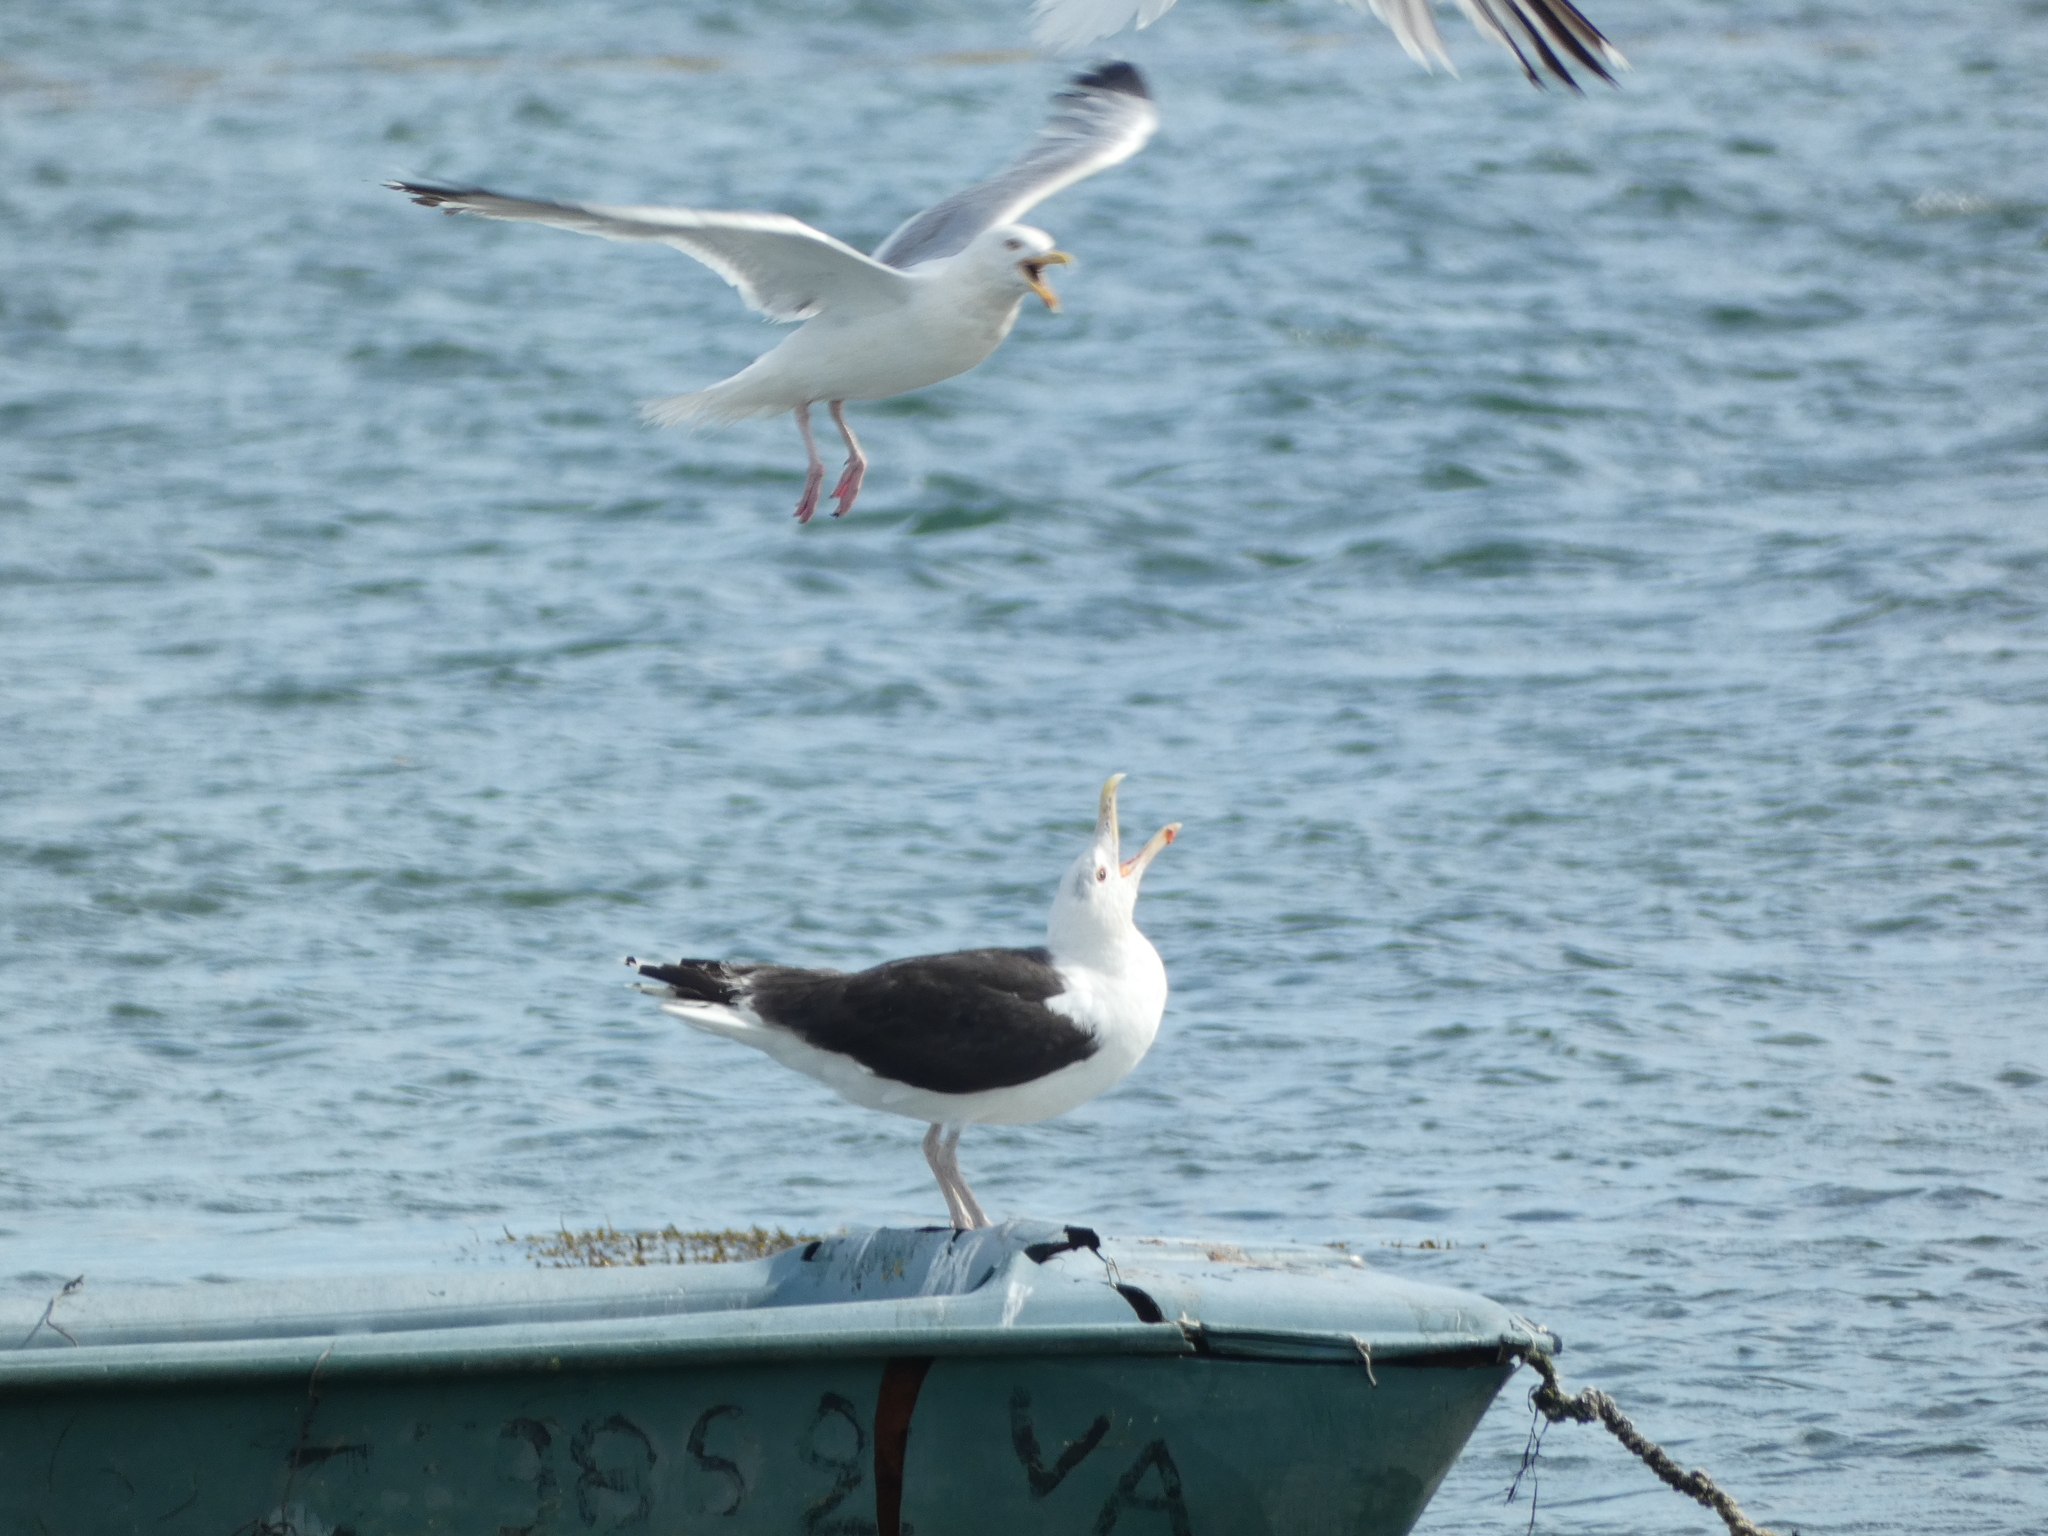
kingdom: Animalia
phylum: Chordata
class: Aves
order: Charadriiformes
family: Laridae
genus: Larus
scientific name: Larus argentatus
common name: Herring gull
